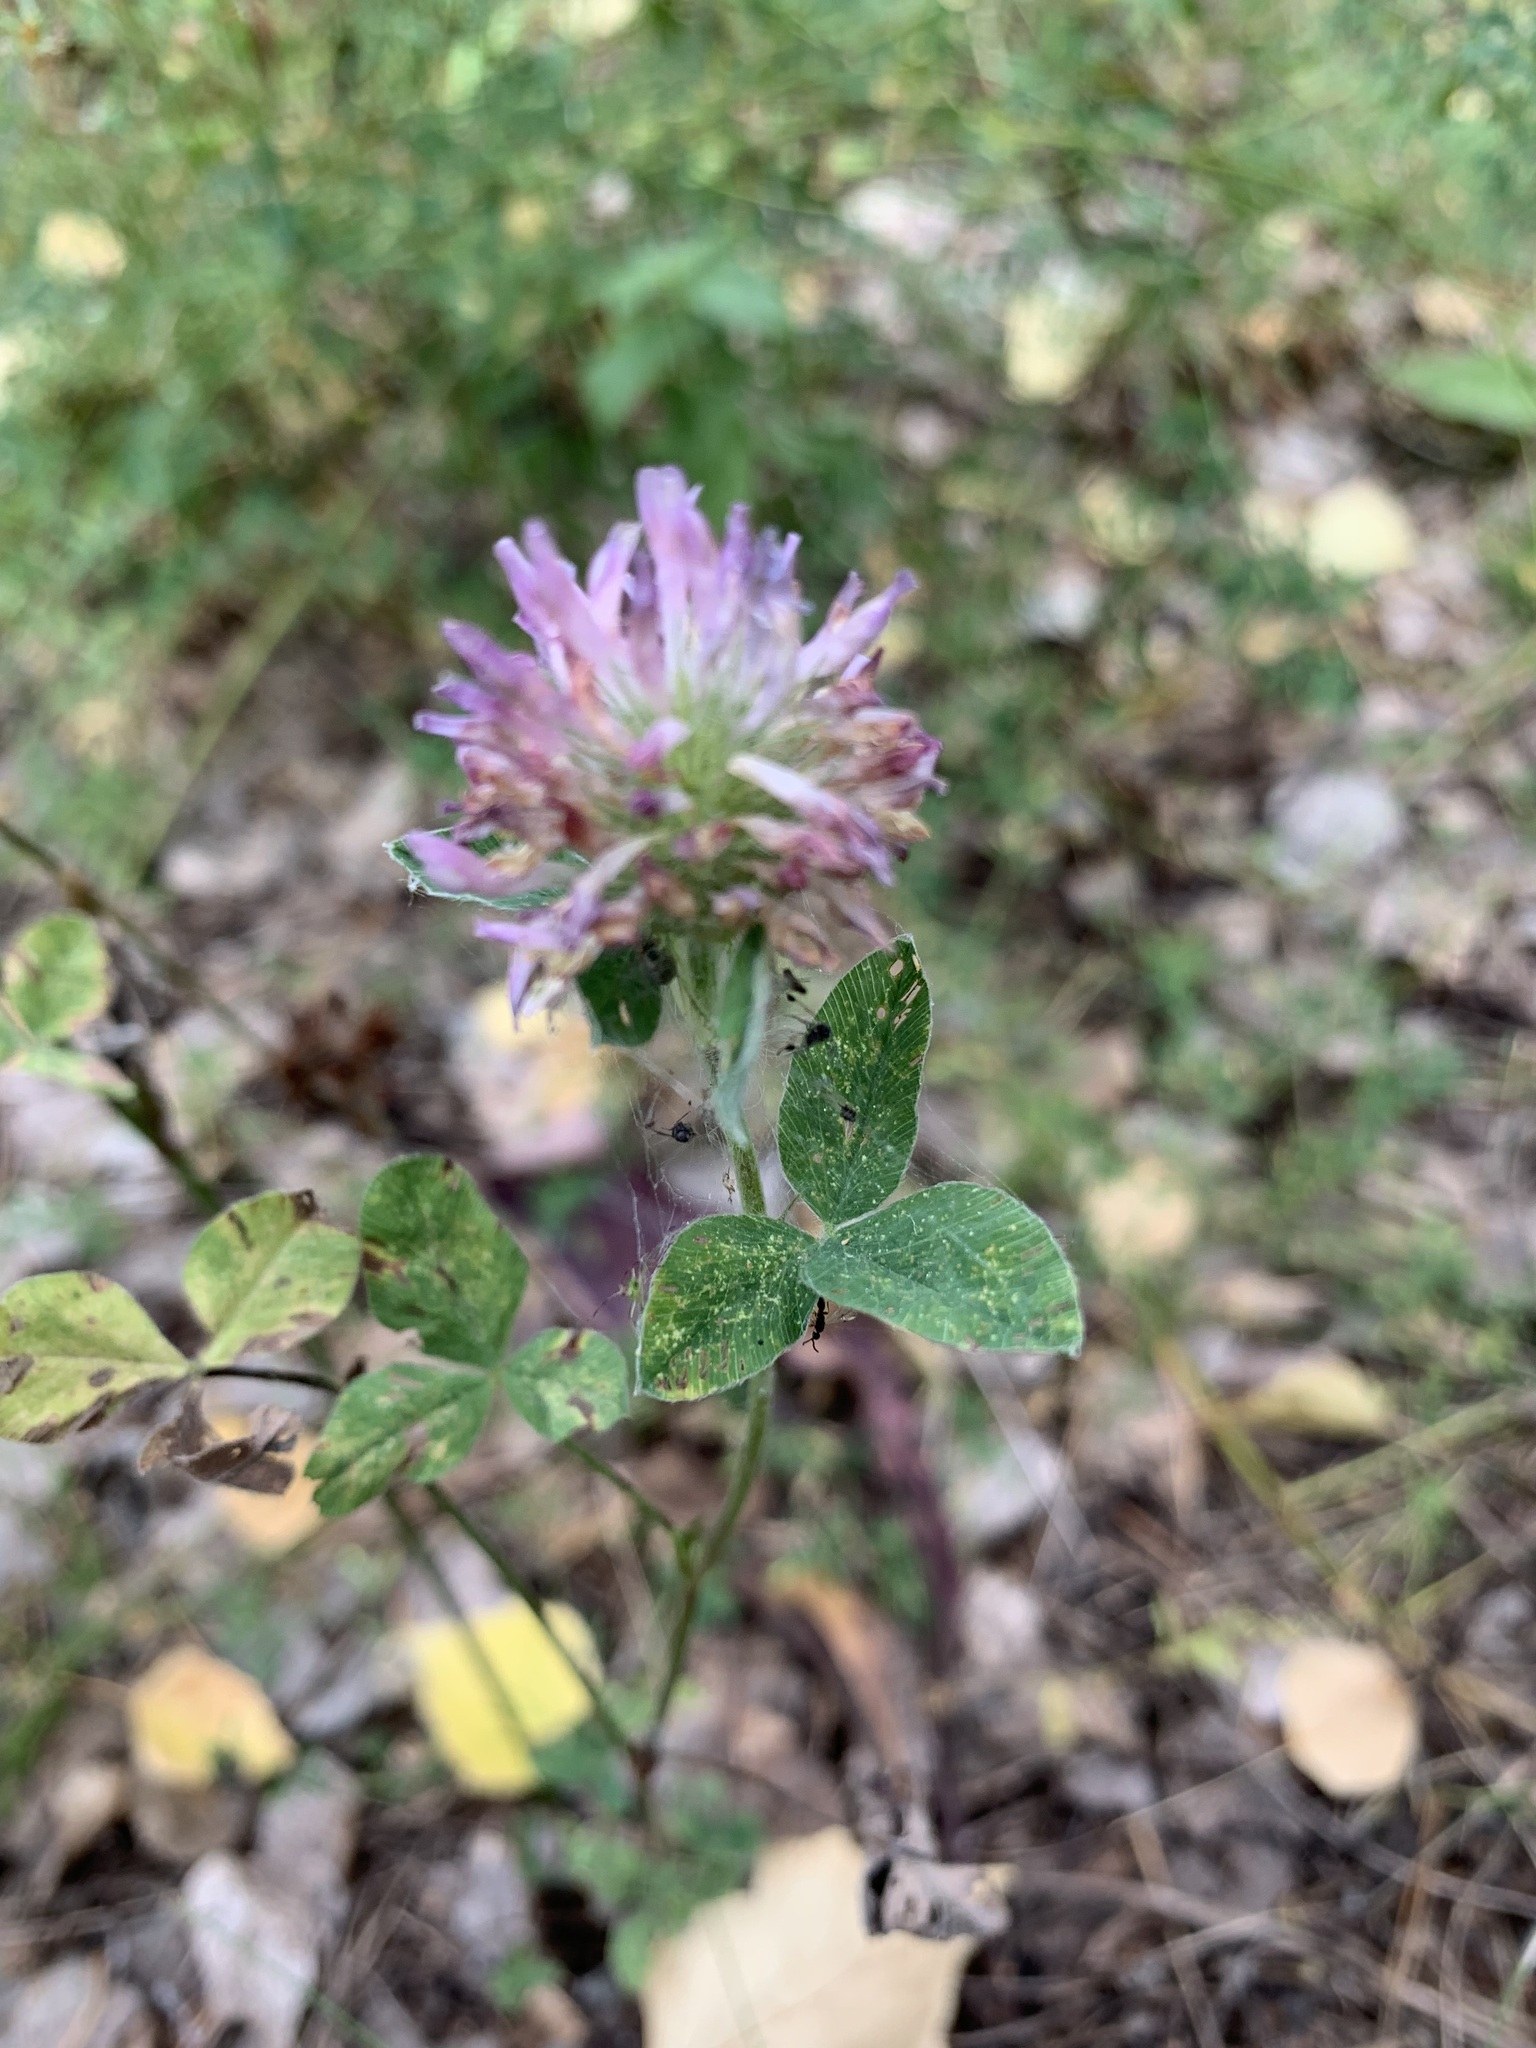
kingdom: Plantae
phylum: Tracheophyta
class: Magnoliopsida
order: Fabales
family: Fabaceae
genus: Trifolium
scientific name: Trifolium pratense
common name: Red clover
